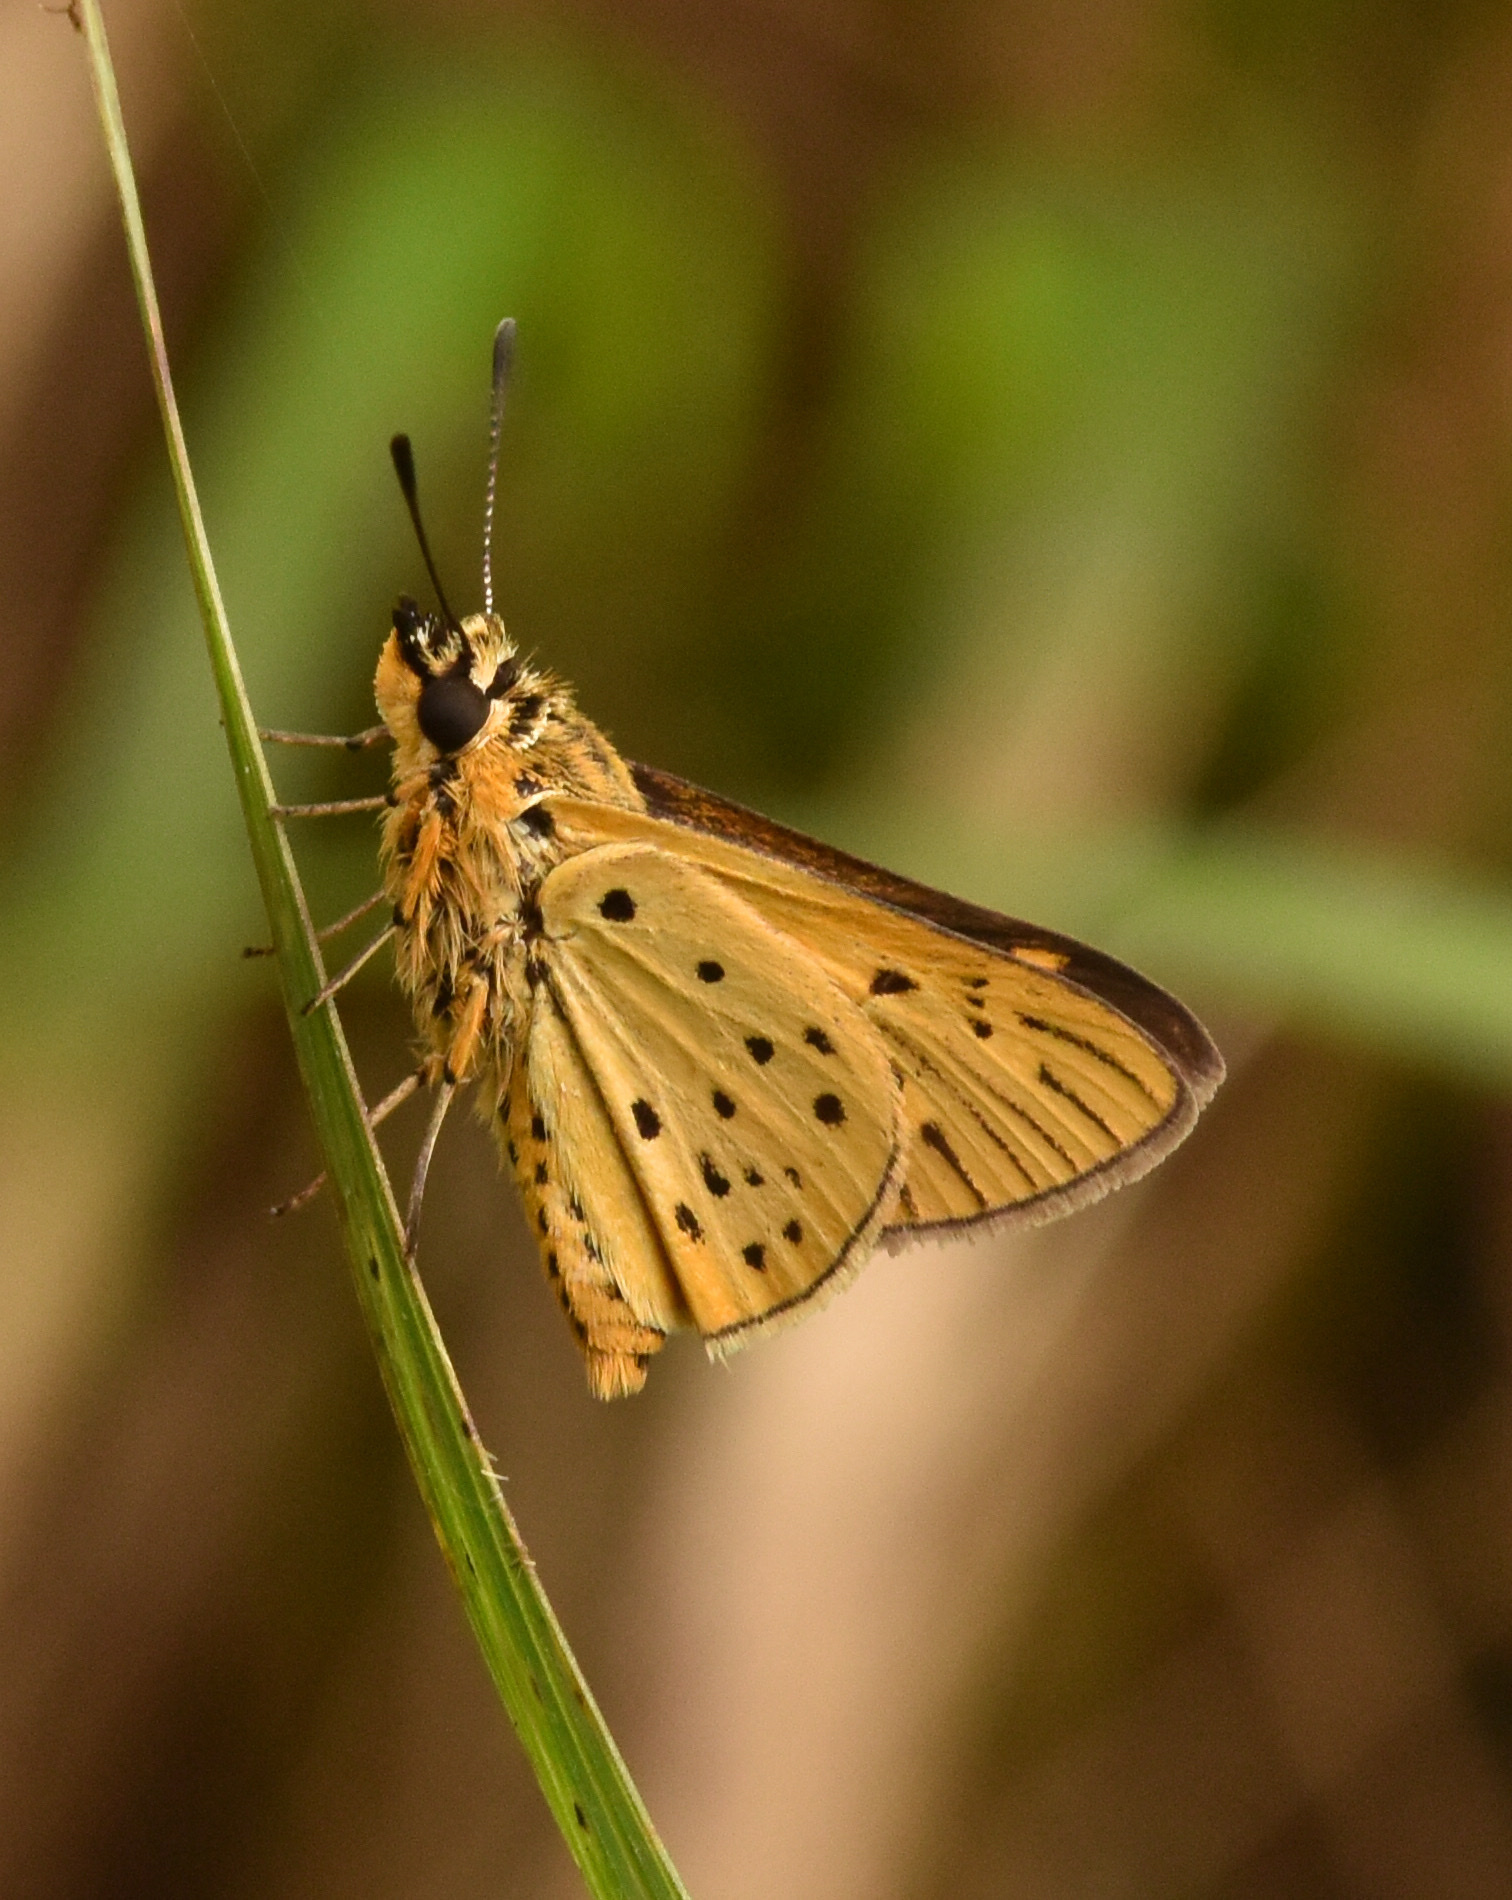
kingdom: Animalia
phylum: Arthropoda
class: Insecta
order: Lepidoptera
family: Hesperiidae
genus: Kedestes
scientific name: Kedestes lepenula
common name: Chequered ranger
